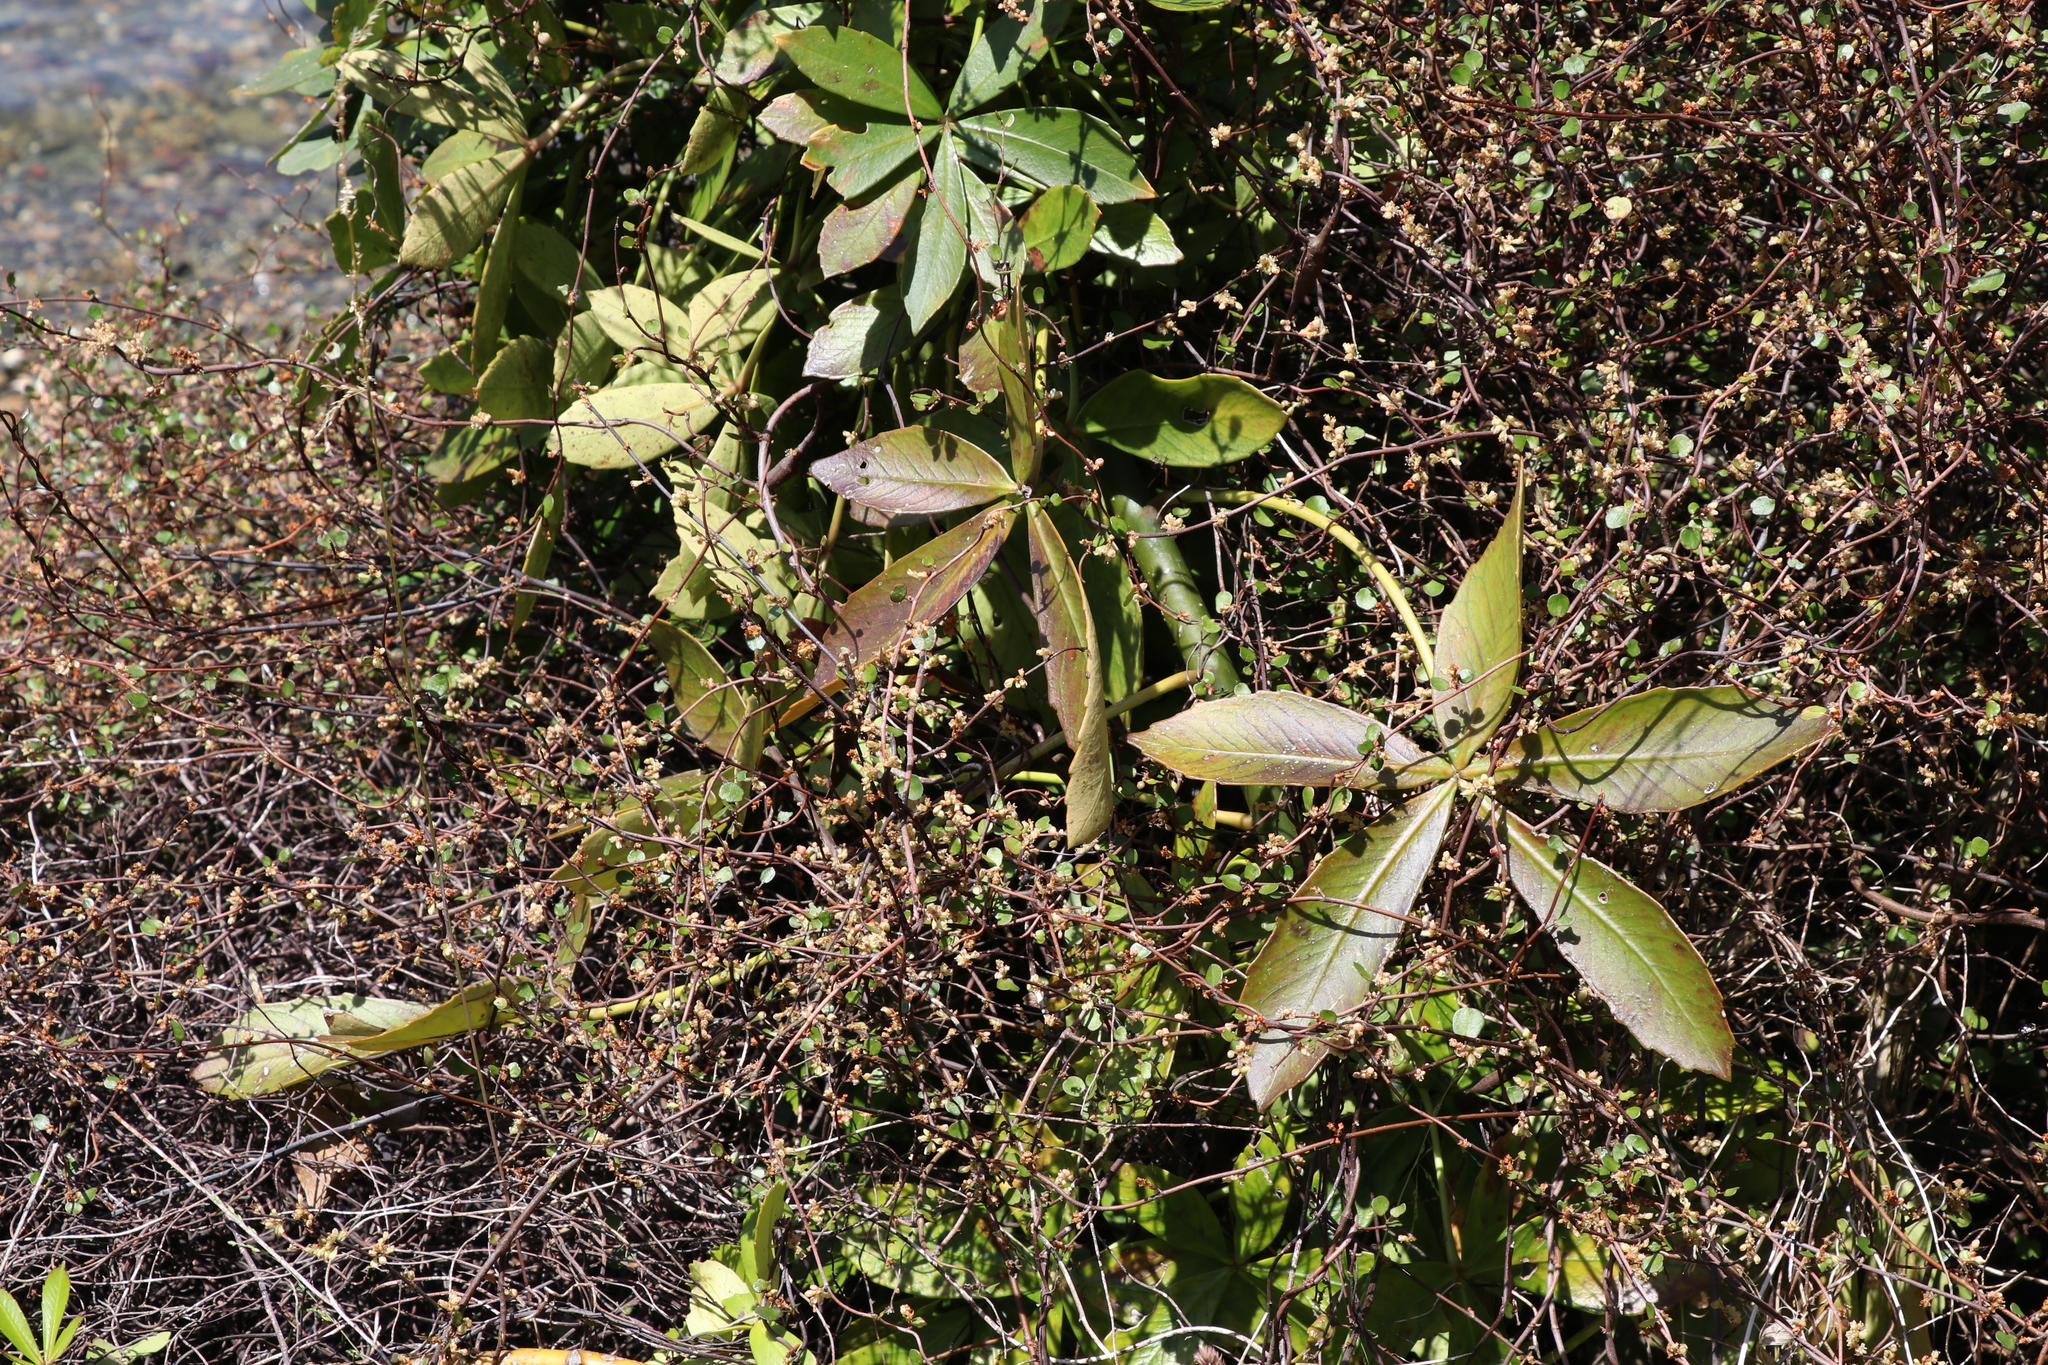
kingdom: Plantae
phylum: Tracheophyta
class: Magnoliopsida
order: Apiales
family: Araliaceae
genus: Pseudopanax
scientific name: Pseudopanax lessonii
